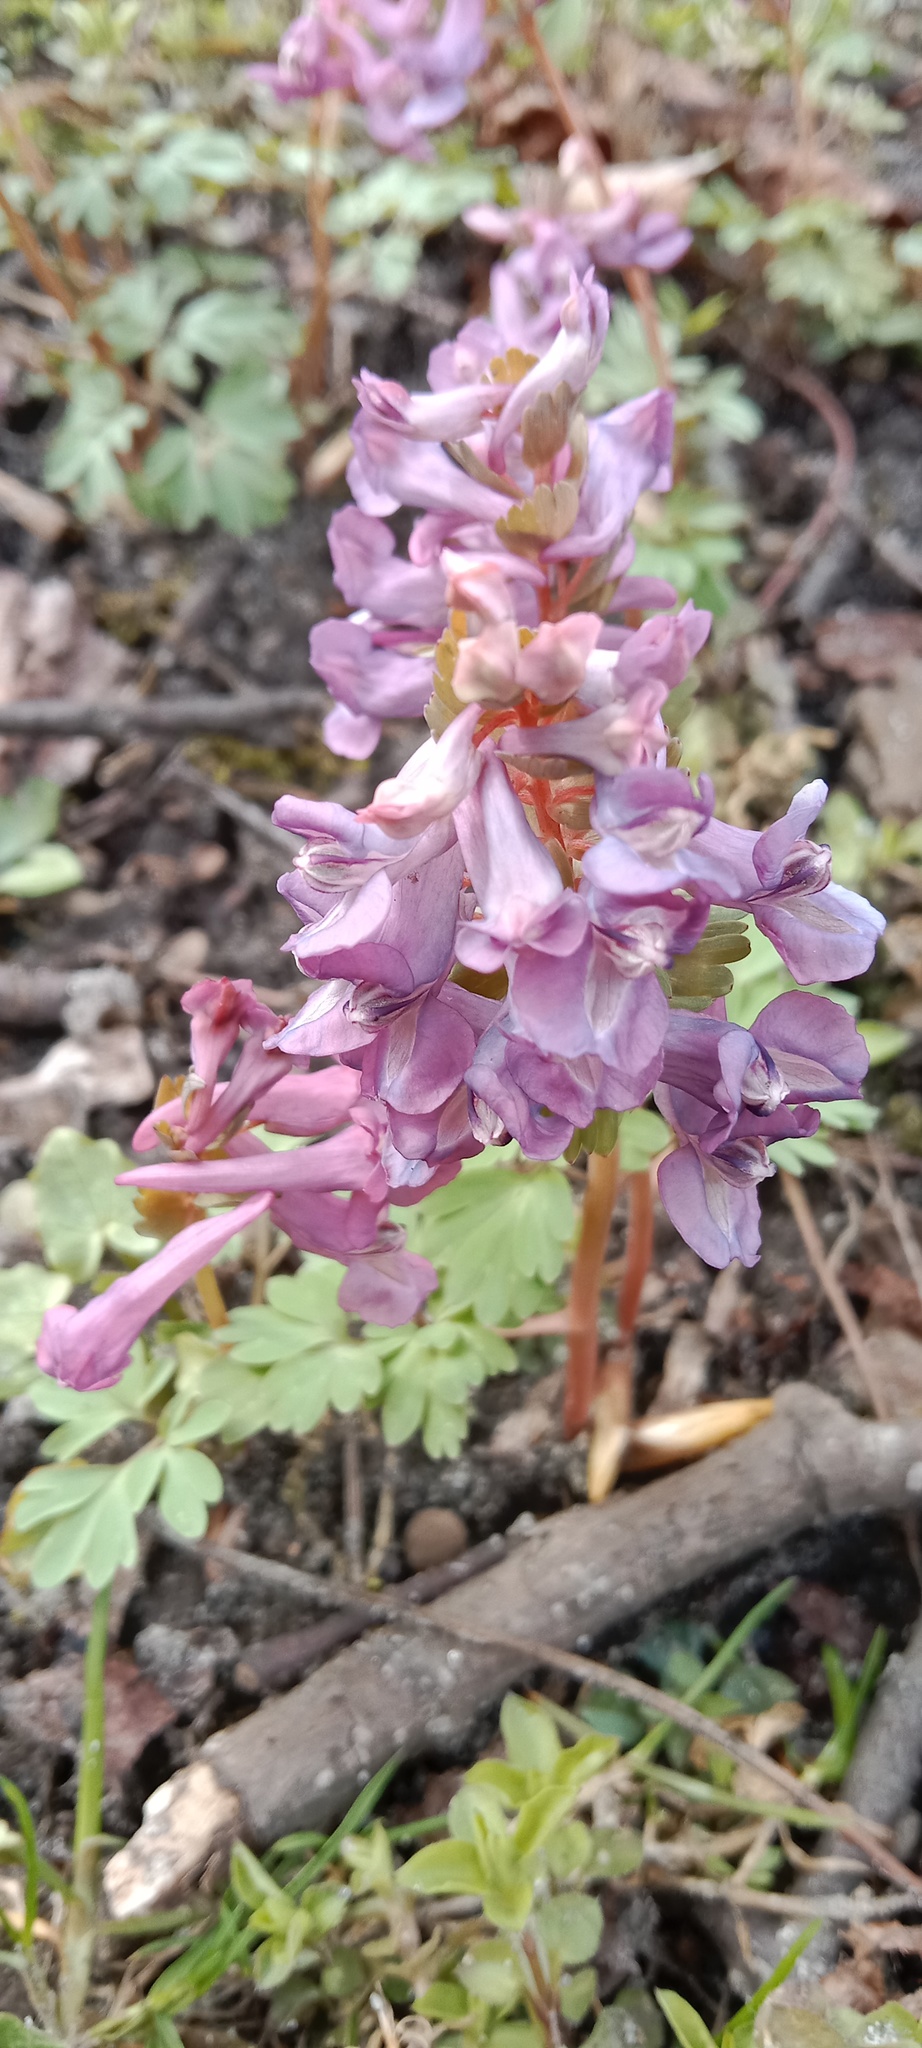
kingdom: Plantae
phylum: Tracheophyta
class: Magnoliopsida
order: Ranunculales
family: Papaveraceae
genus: Corydalis
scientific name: Corydalis solida
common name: Bird-in-a-bush
